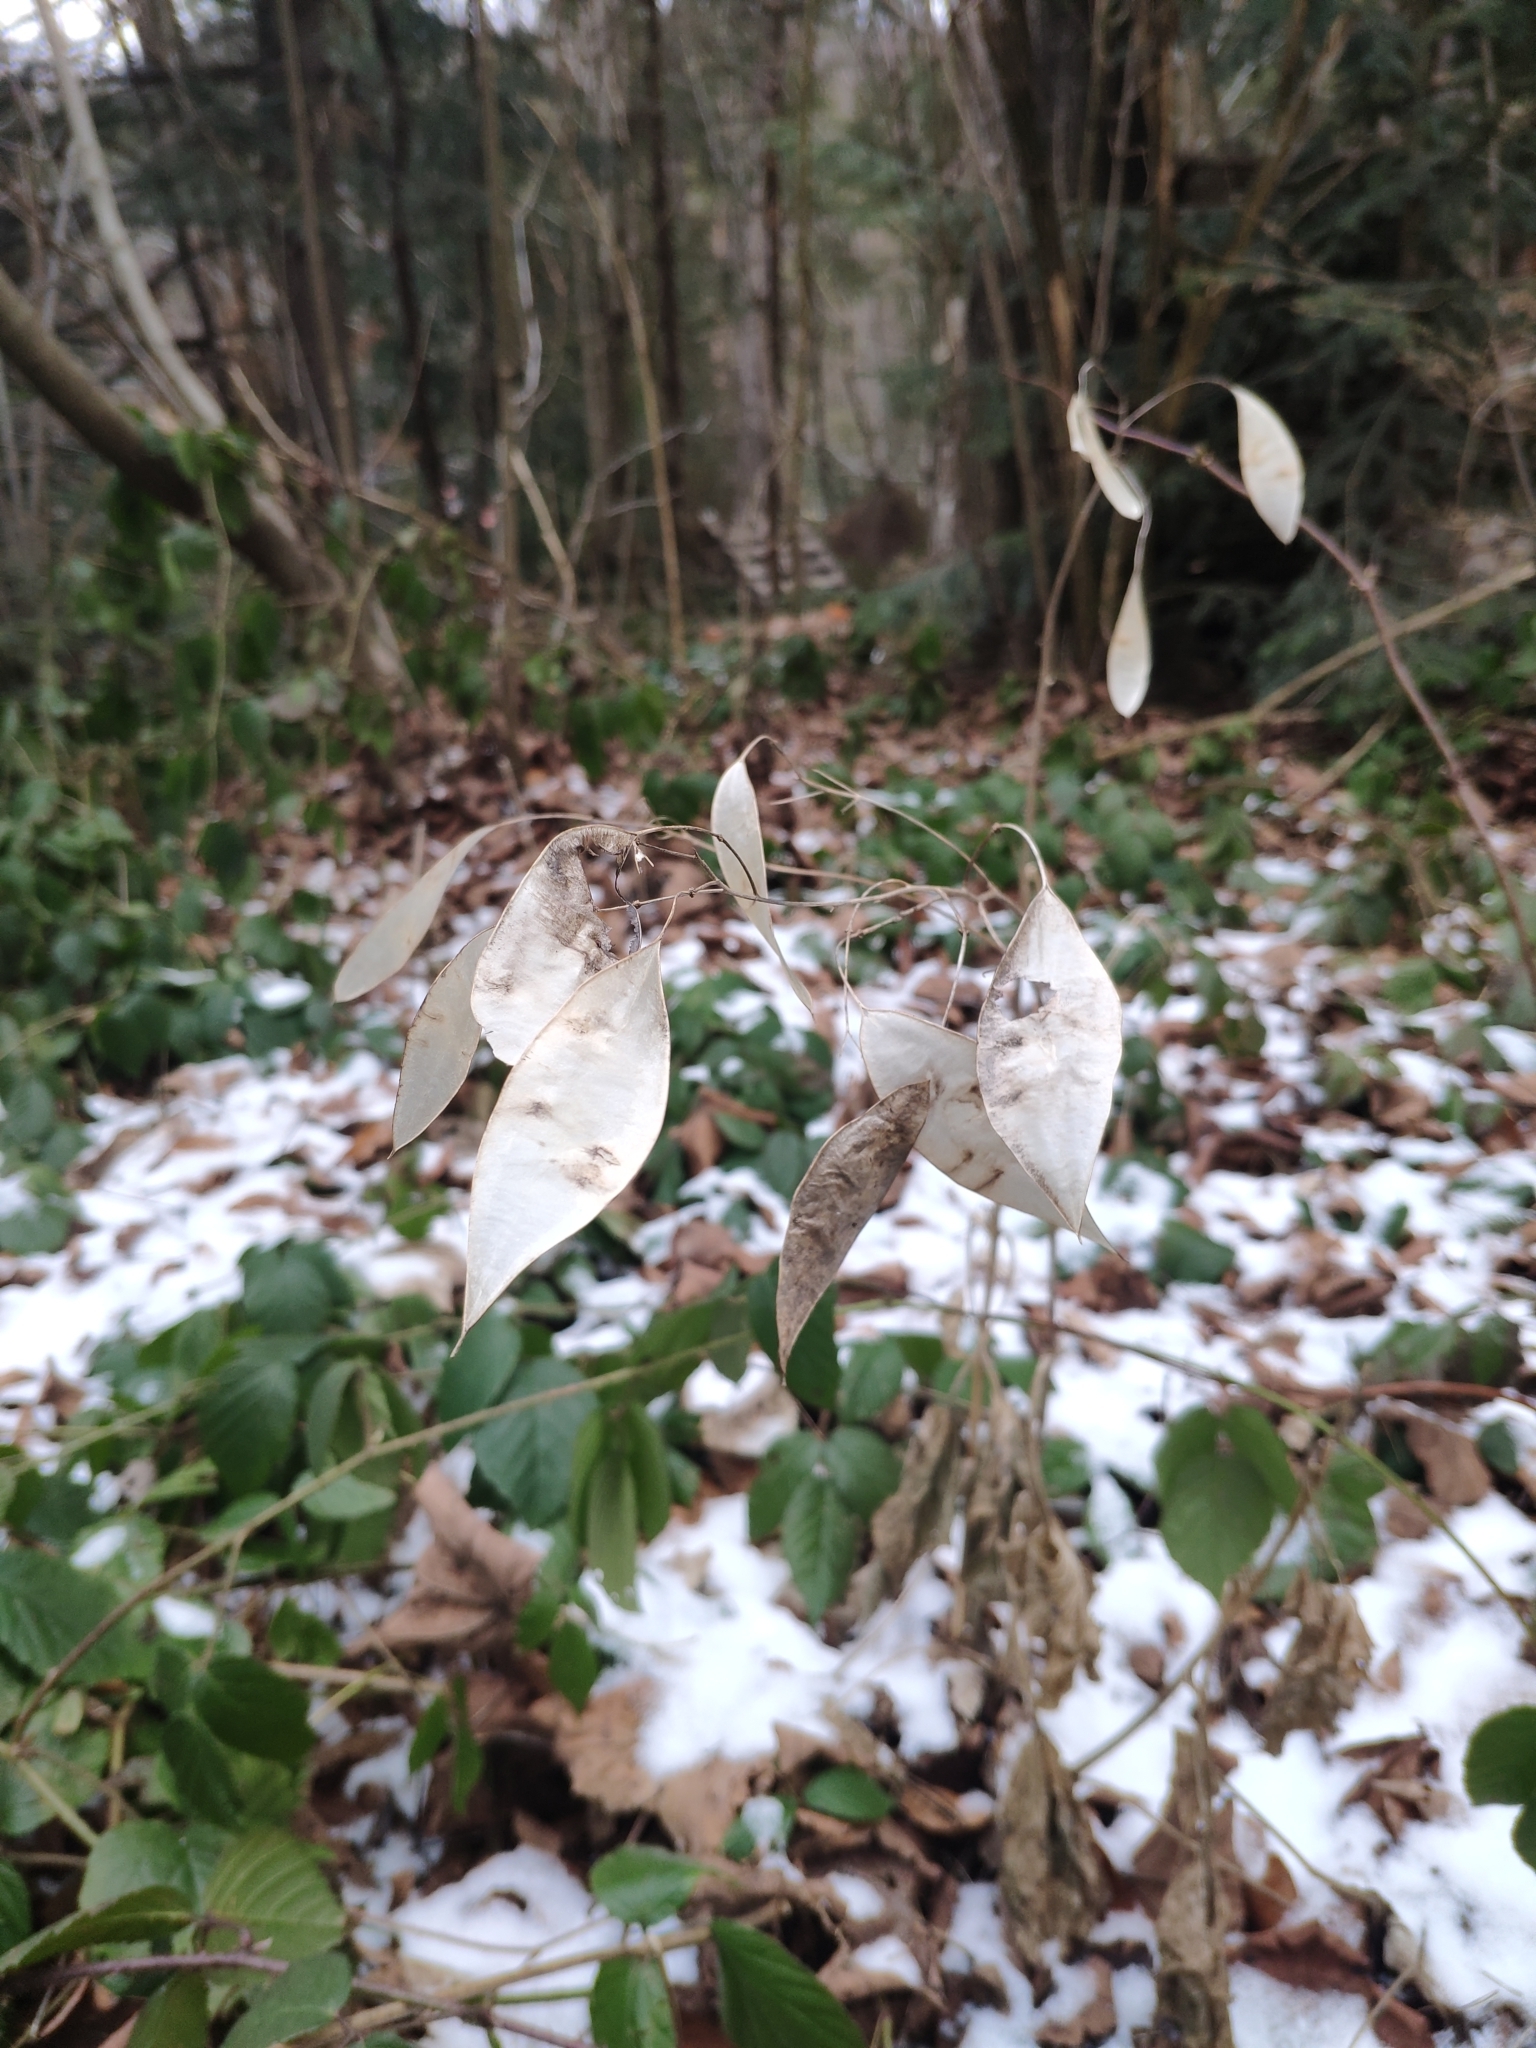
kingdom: Plantae
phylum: Tracheophyta
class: Magnoliopsida
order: Brassicales
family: Brassicaceae
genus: Lunaria
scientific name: Lunaria rediviva
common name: Perennial honesty
